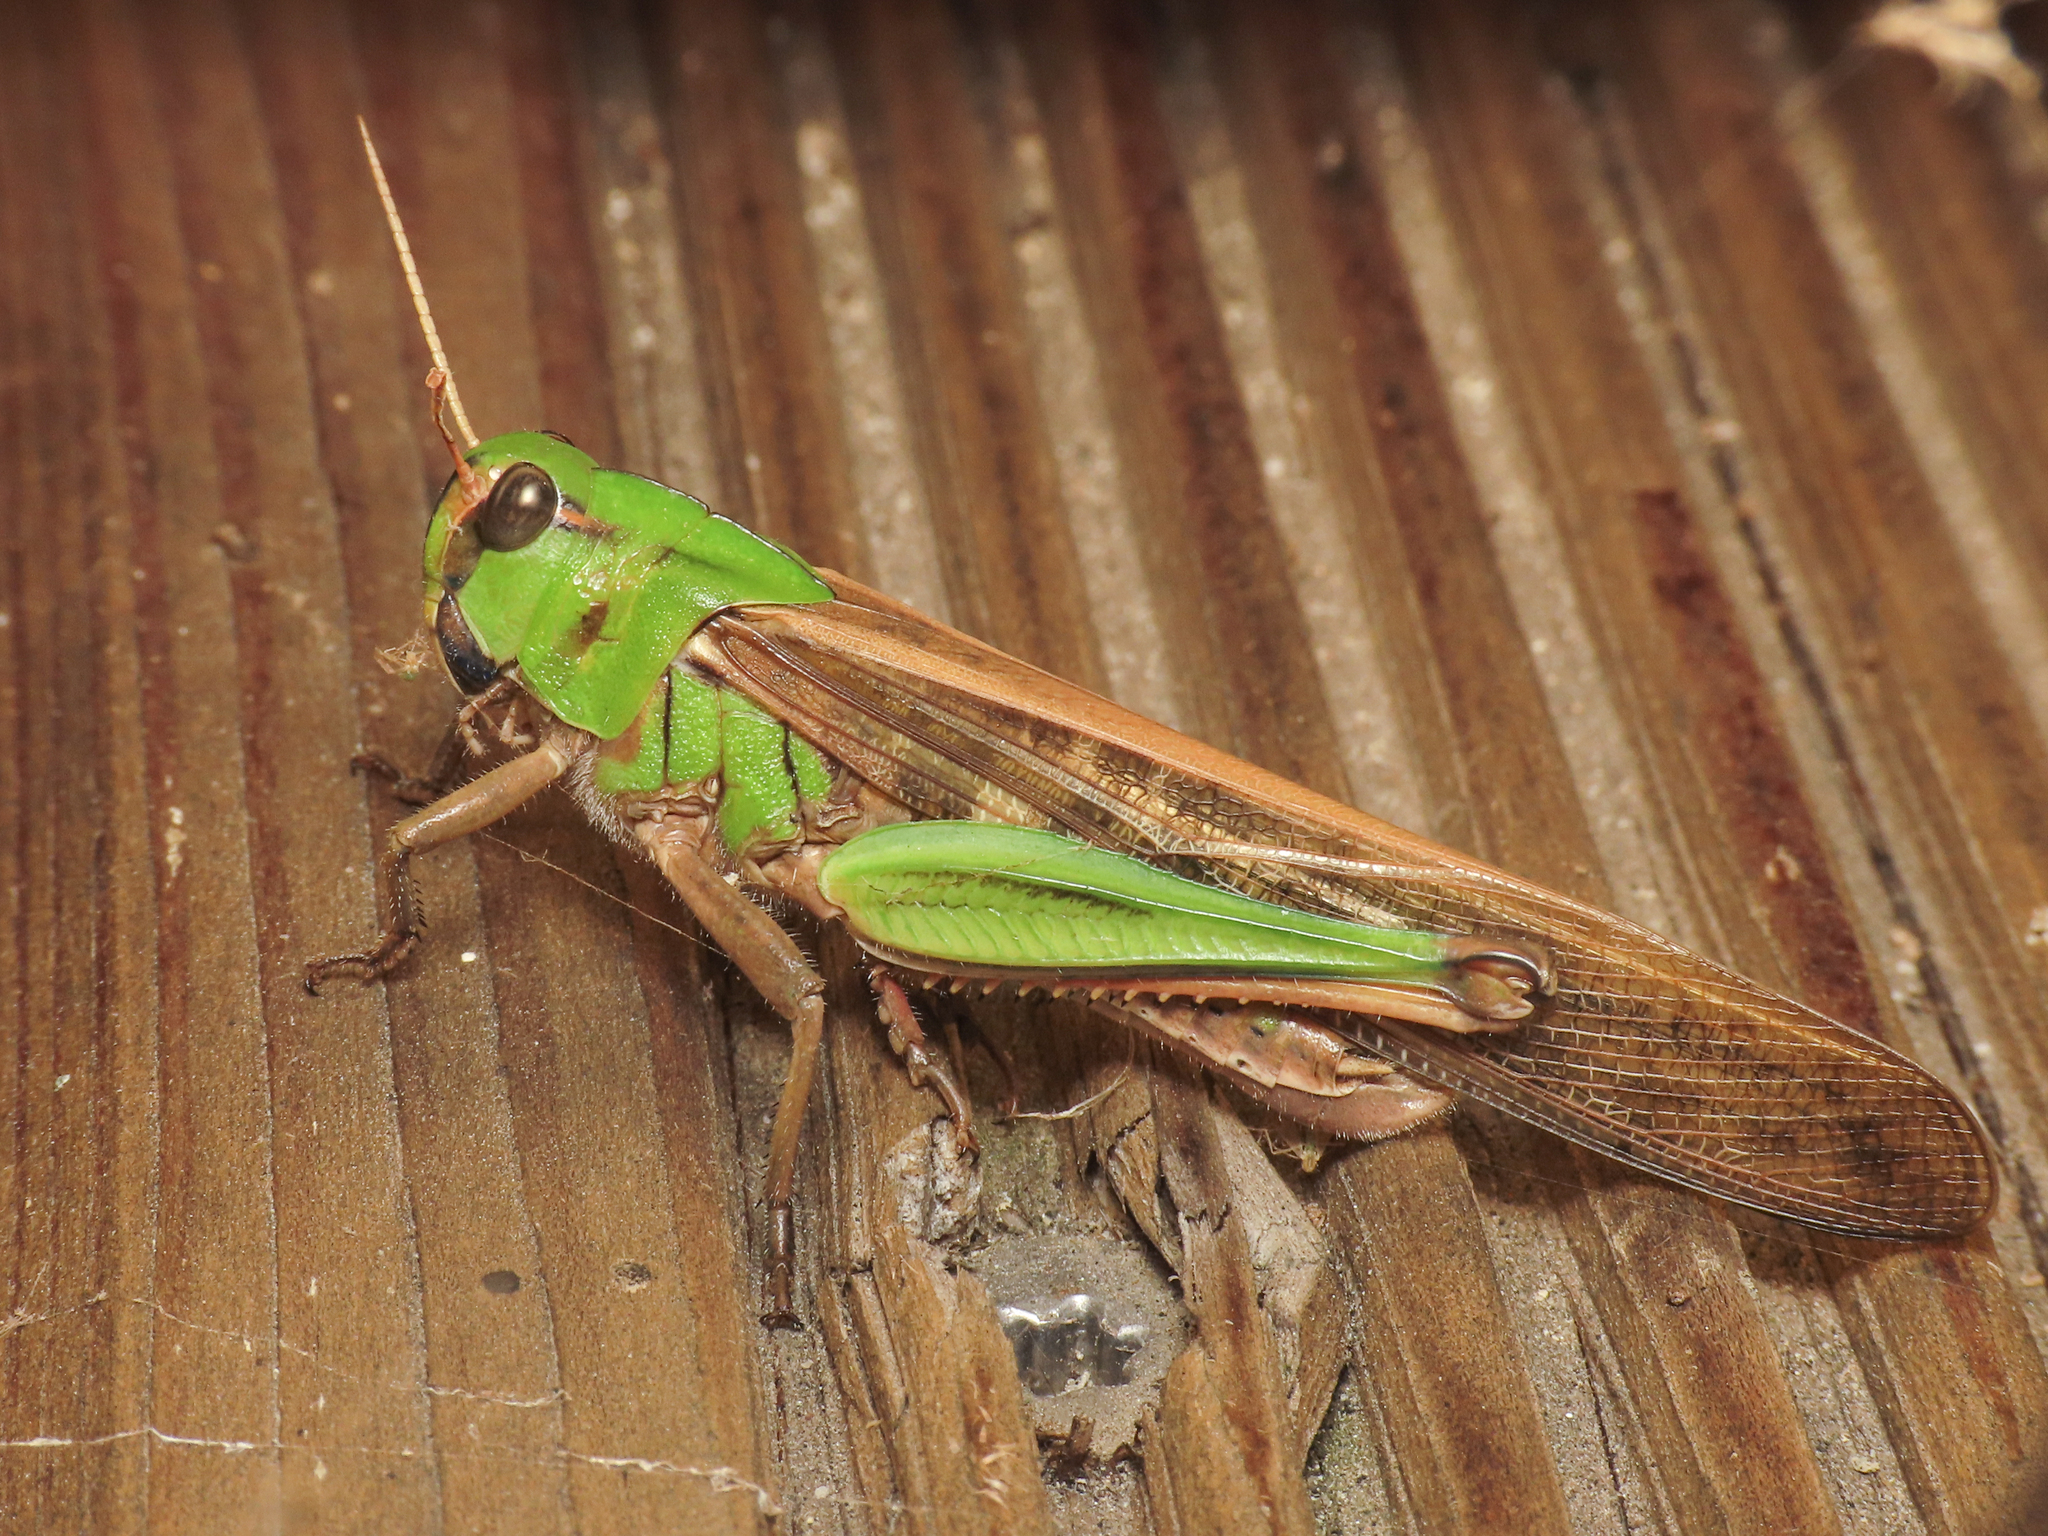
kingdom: Animalia
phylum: Arthropoda
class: Insecta
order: Orthoptera
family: Acrididae
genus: Locusta
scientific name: Locusta migratoria
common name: Migratory locust
